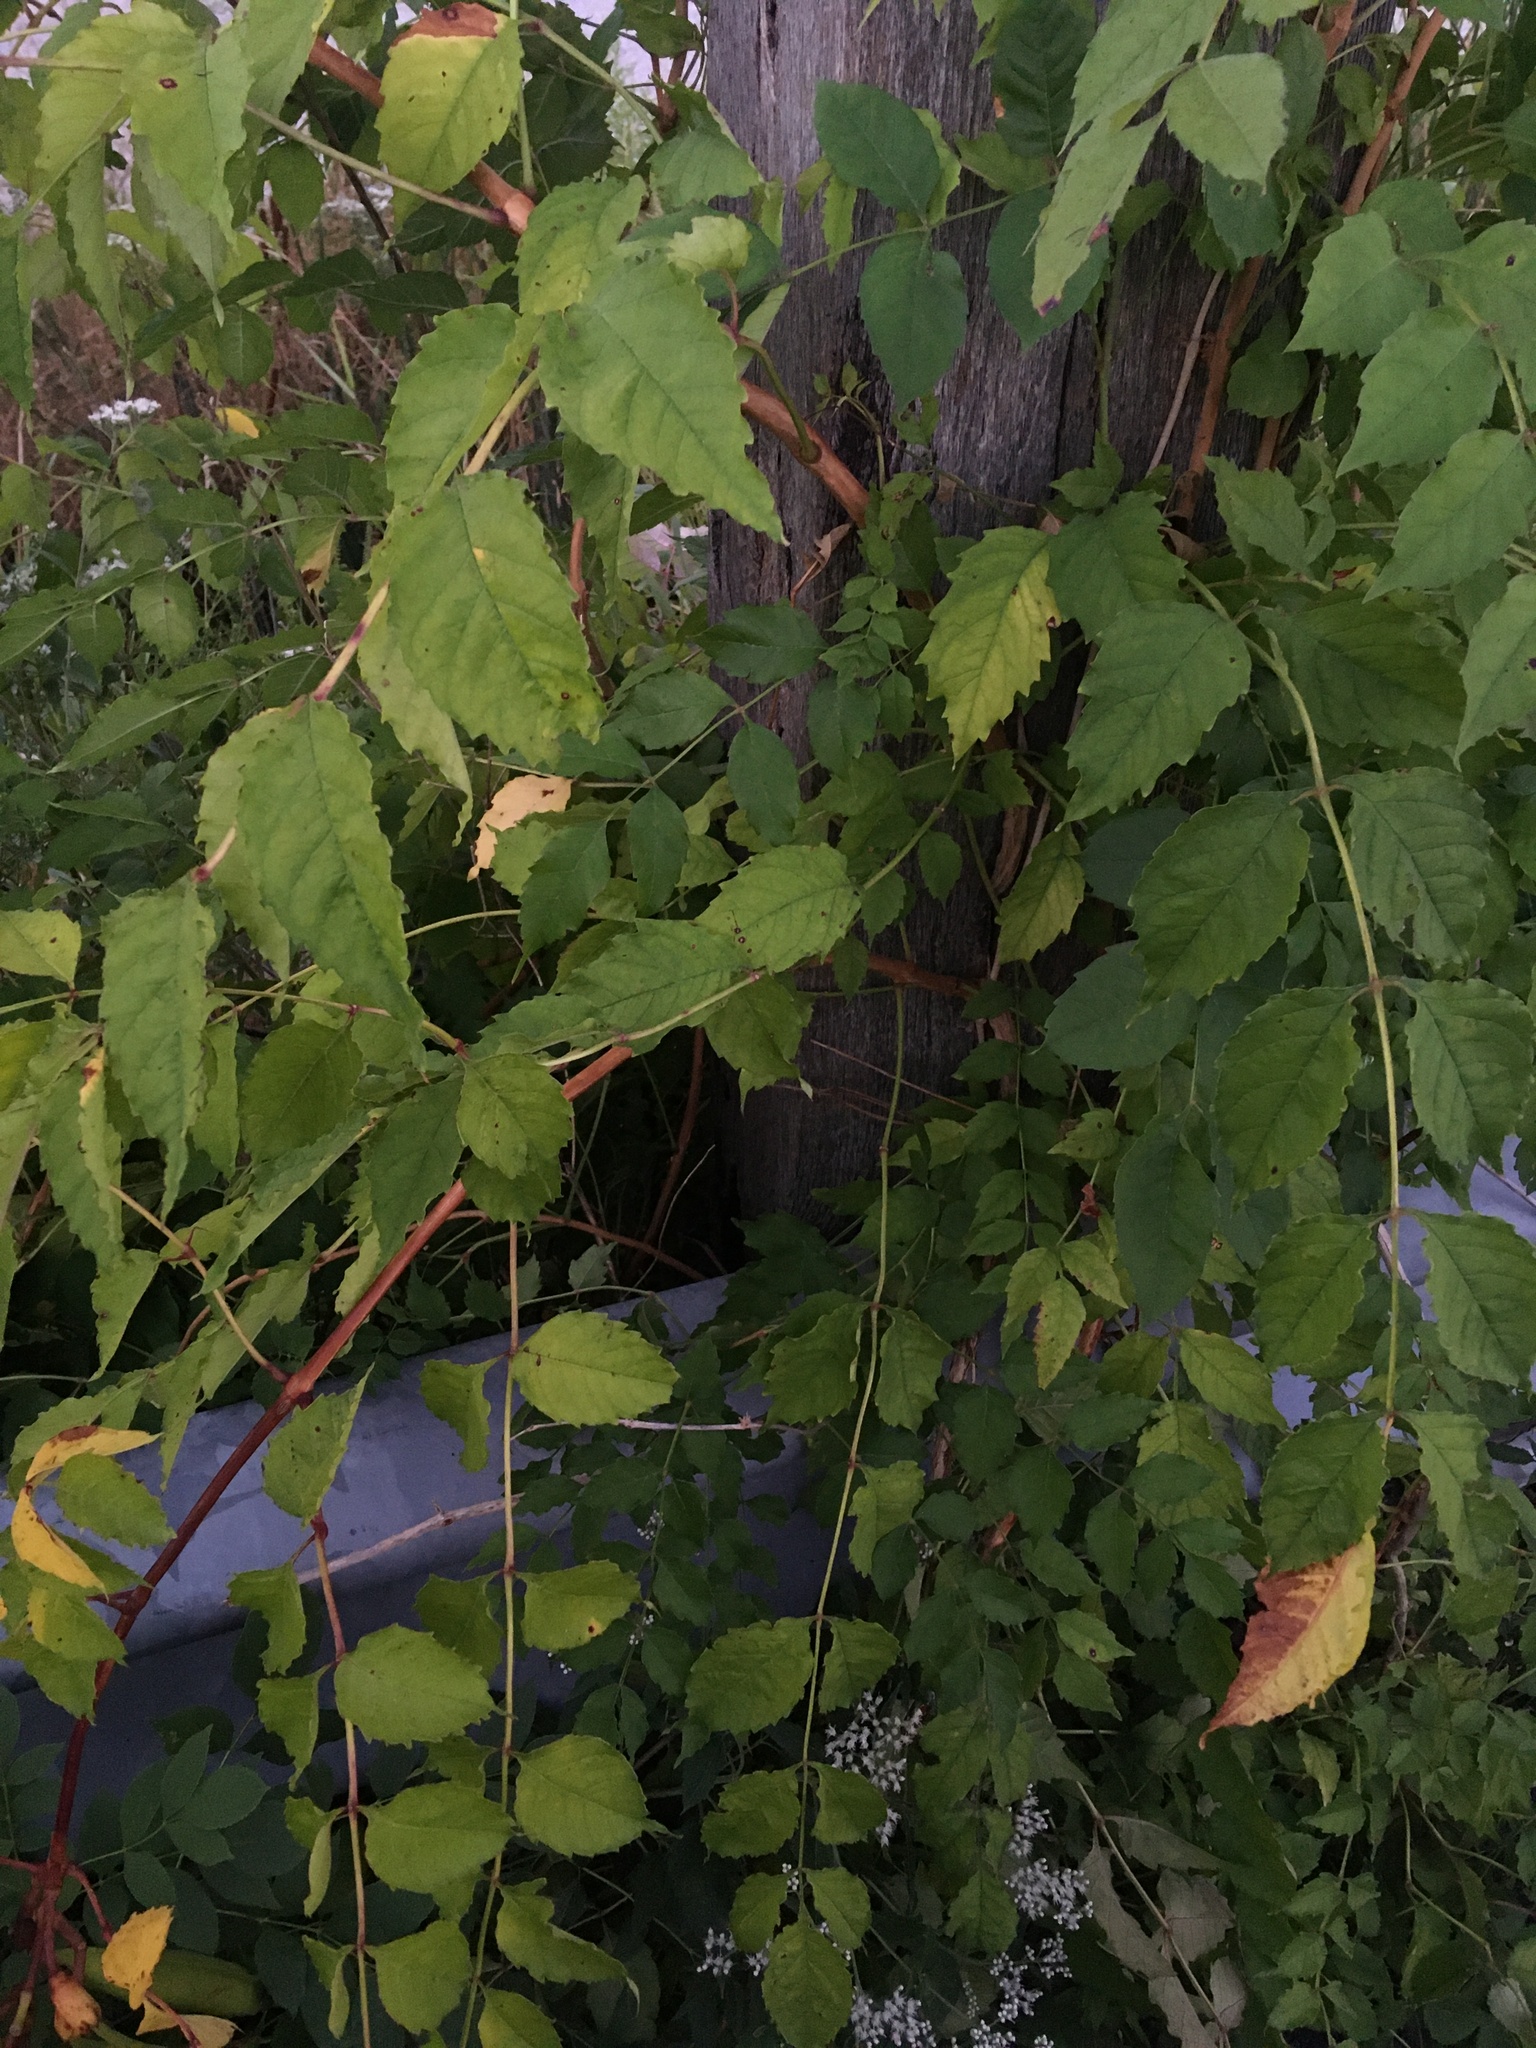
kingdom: Plantae
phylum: Tracheophyta
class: Magnoliopsida
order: Lamiales
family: Bignoniaceae
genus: Campsis
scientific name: Campsis radicans
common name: Trumpet-creeper
